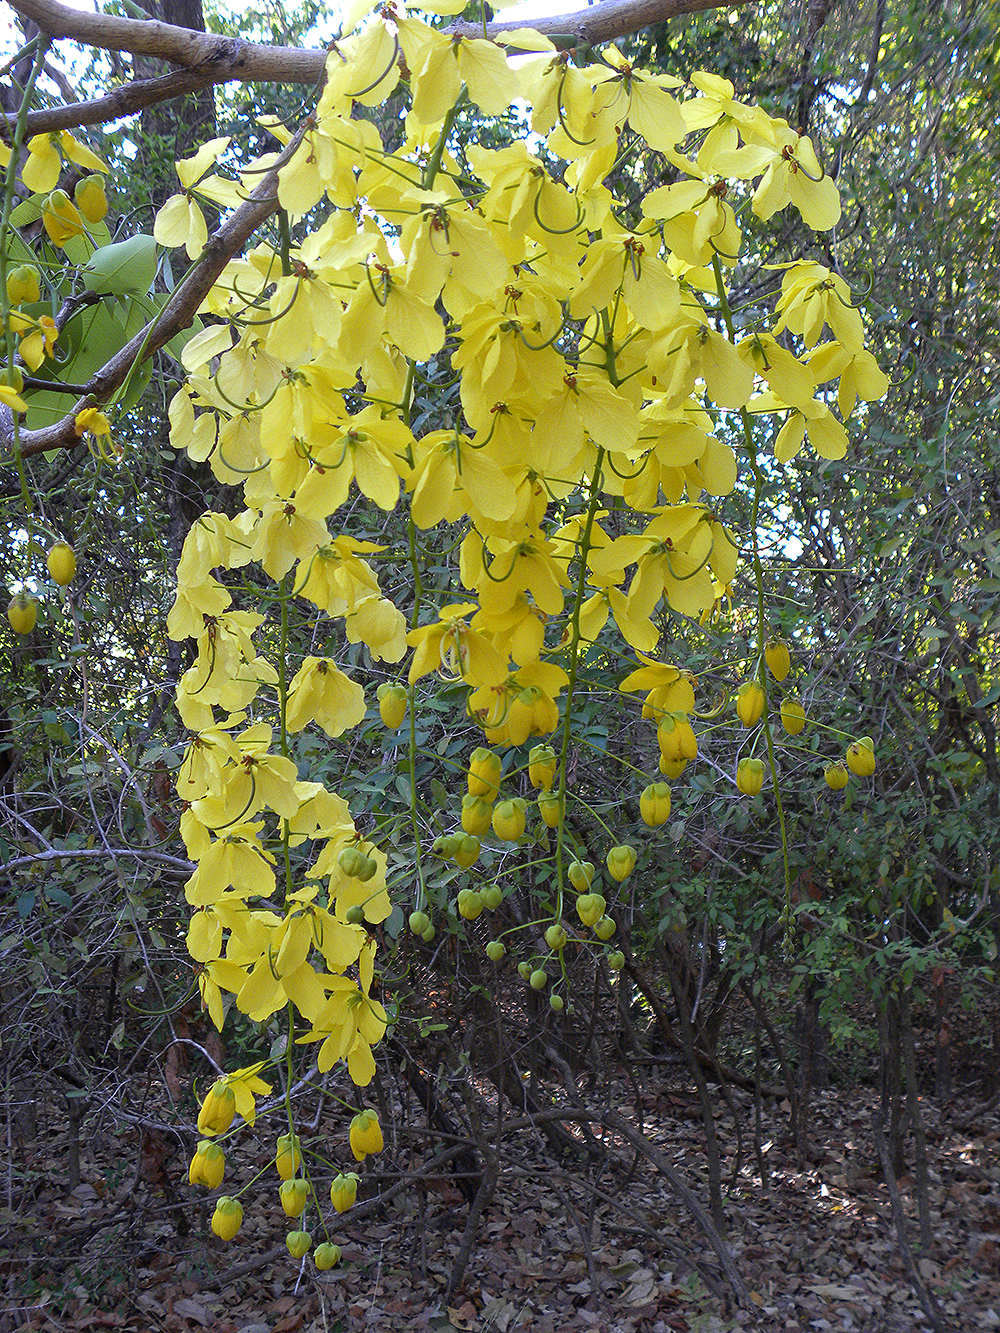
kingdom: Plantae
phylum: Tracheophyta
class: Magnoliopsida
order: Fabales
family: Fabaceae
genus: Cassia
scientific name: Cassia fistula
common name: Golden shower
